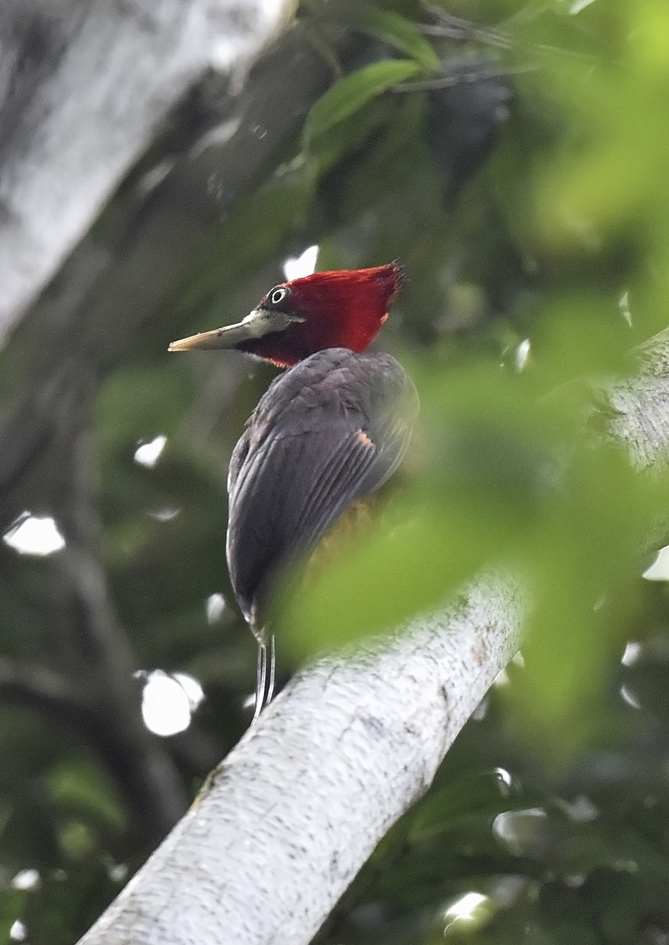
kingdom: Animalia
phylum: Chordata
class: Aves
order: Piciformes
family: Picidae
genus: Campephilus
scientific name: Campephilus rubricollis
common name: Red-necked woodpecker
